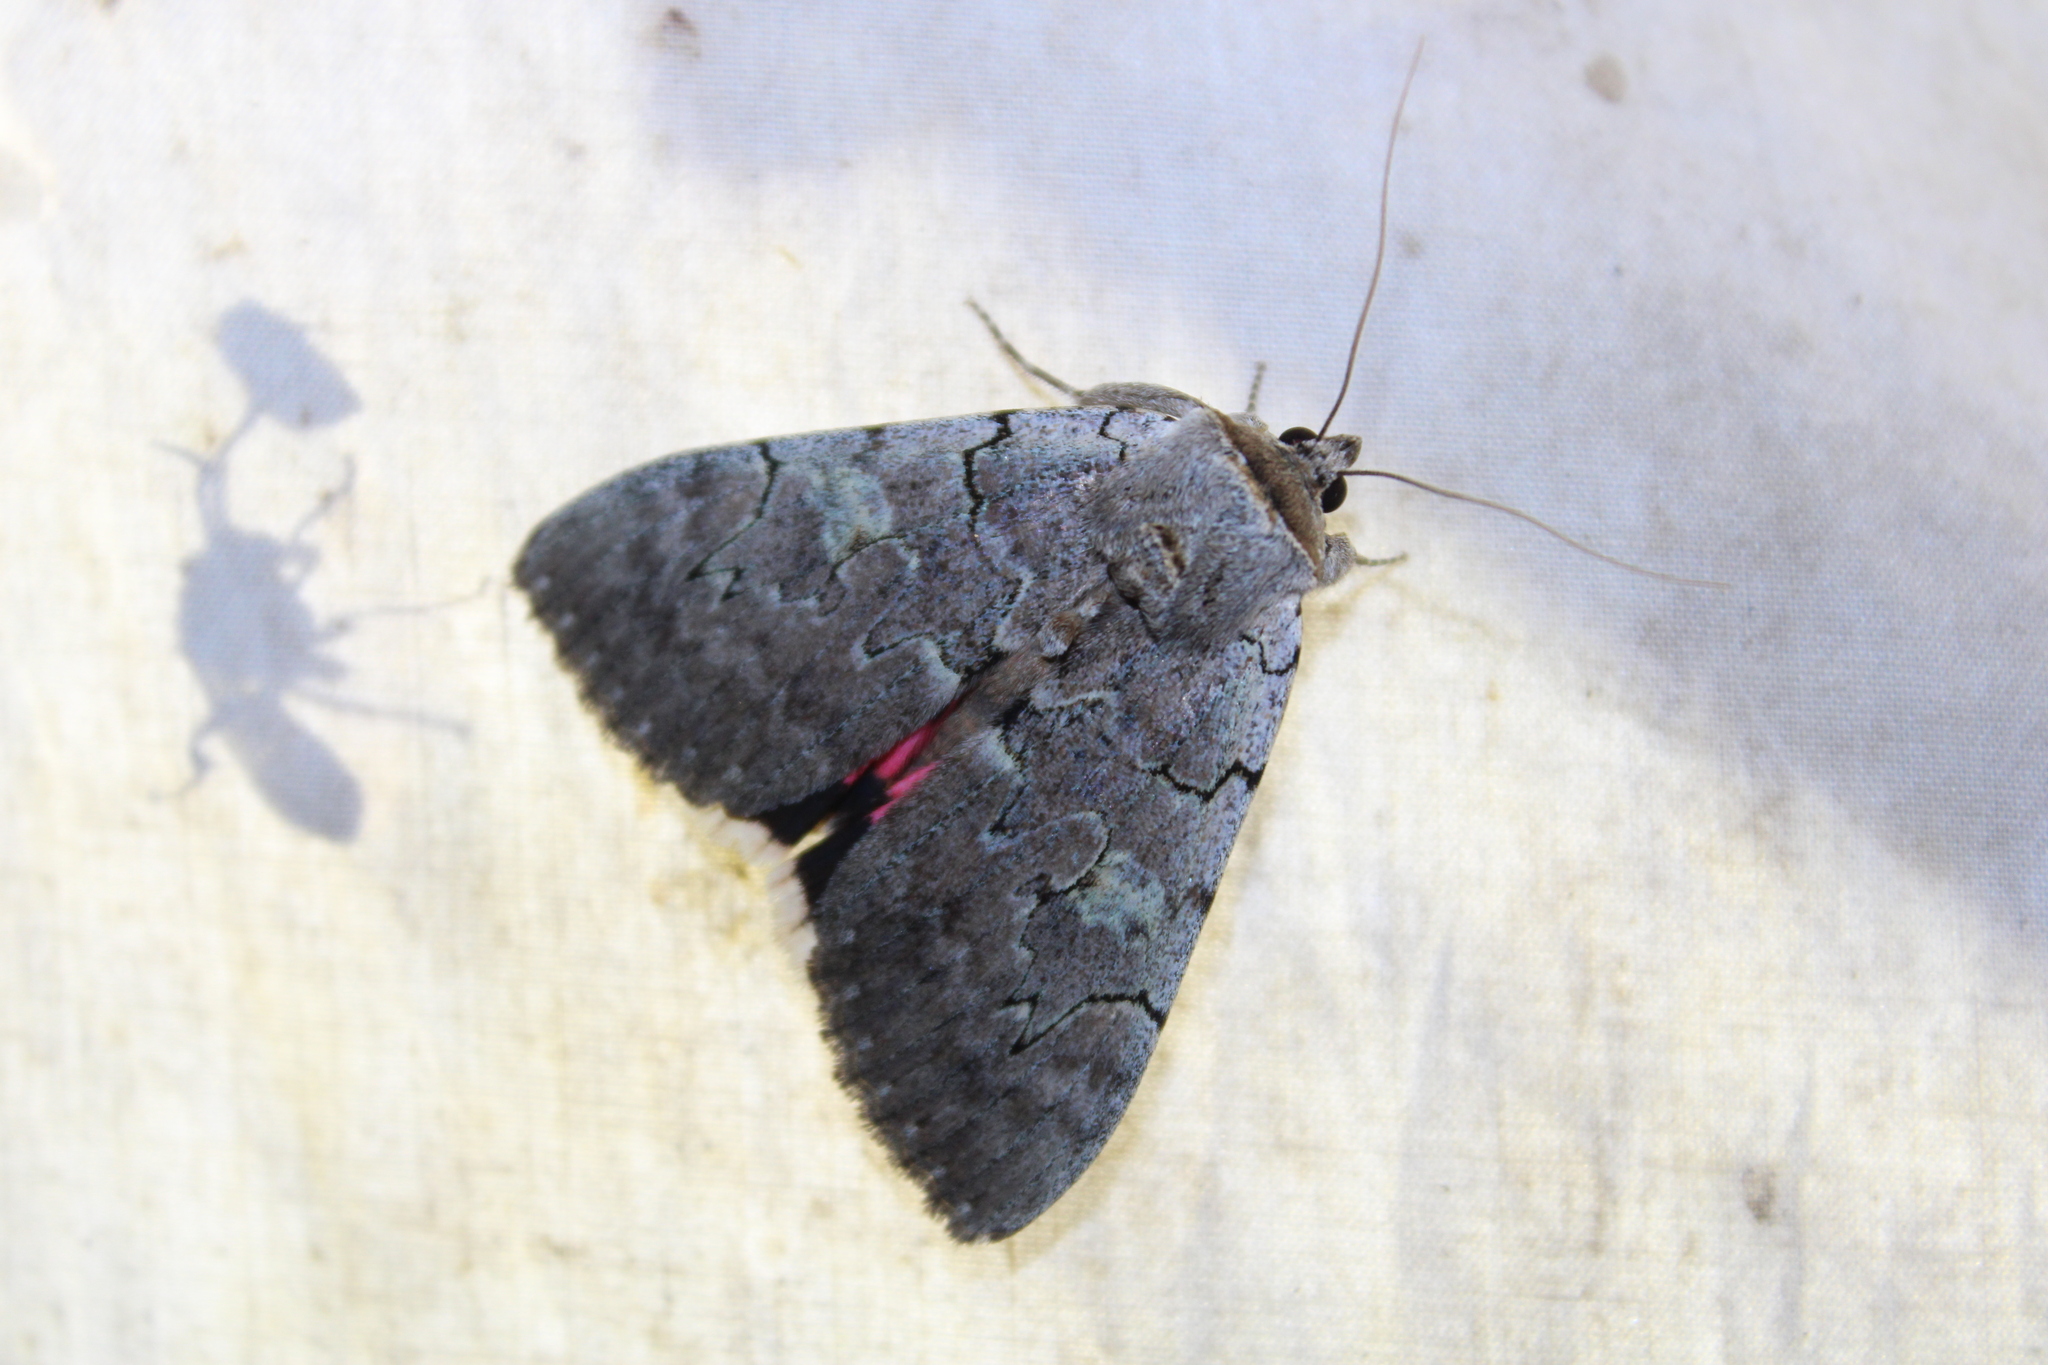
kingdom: Animalia
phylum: Arthropoda
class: Insecta
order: Lepidoptera
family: Erebidae
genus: Catocala
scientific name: Catocala concumbens
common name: Pink underwing
